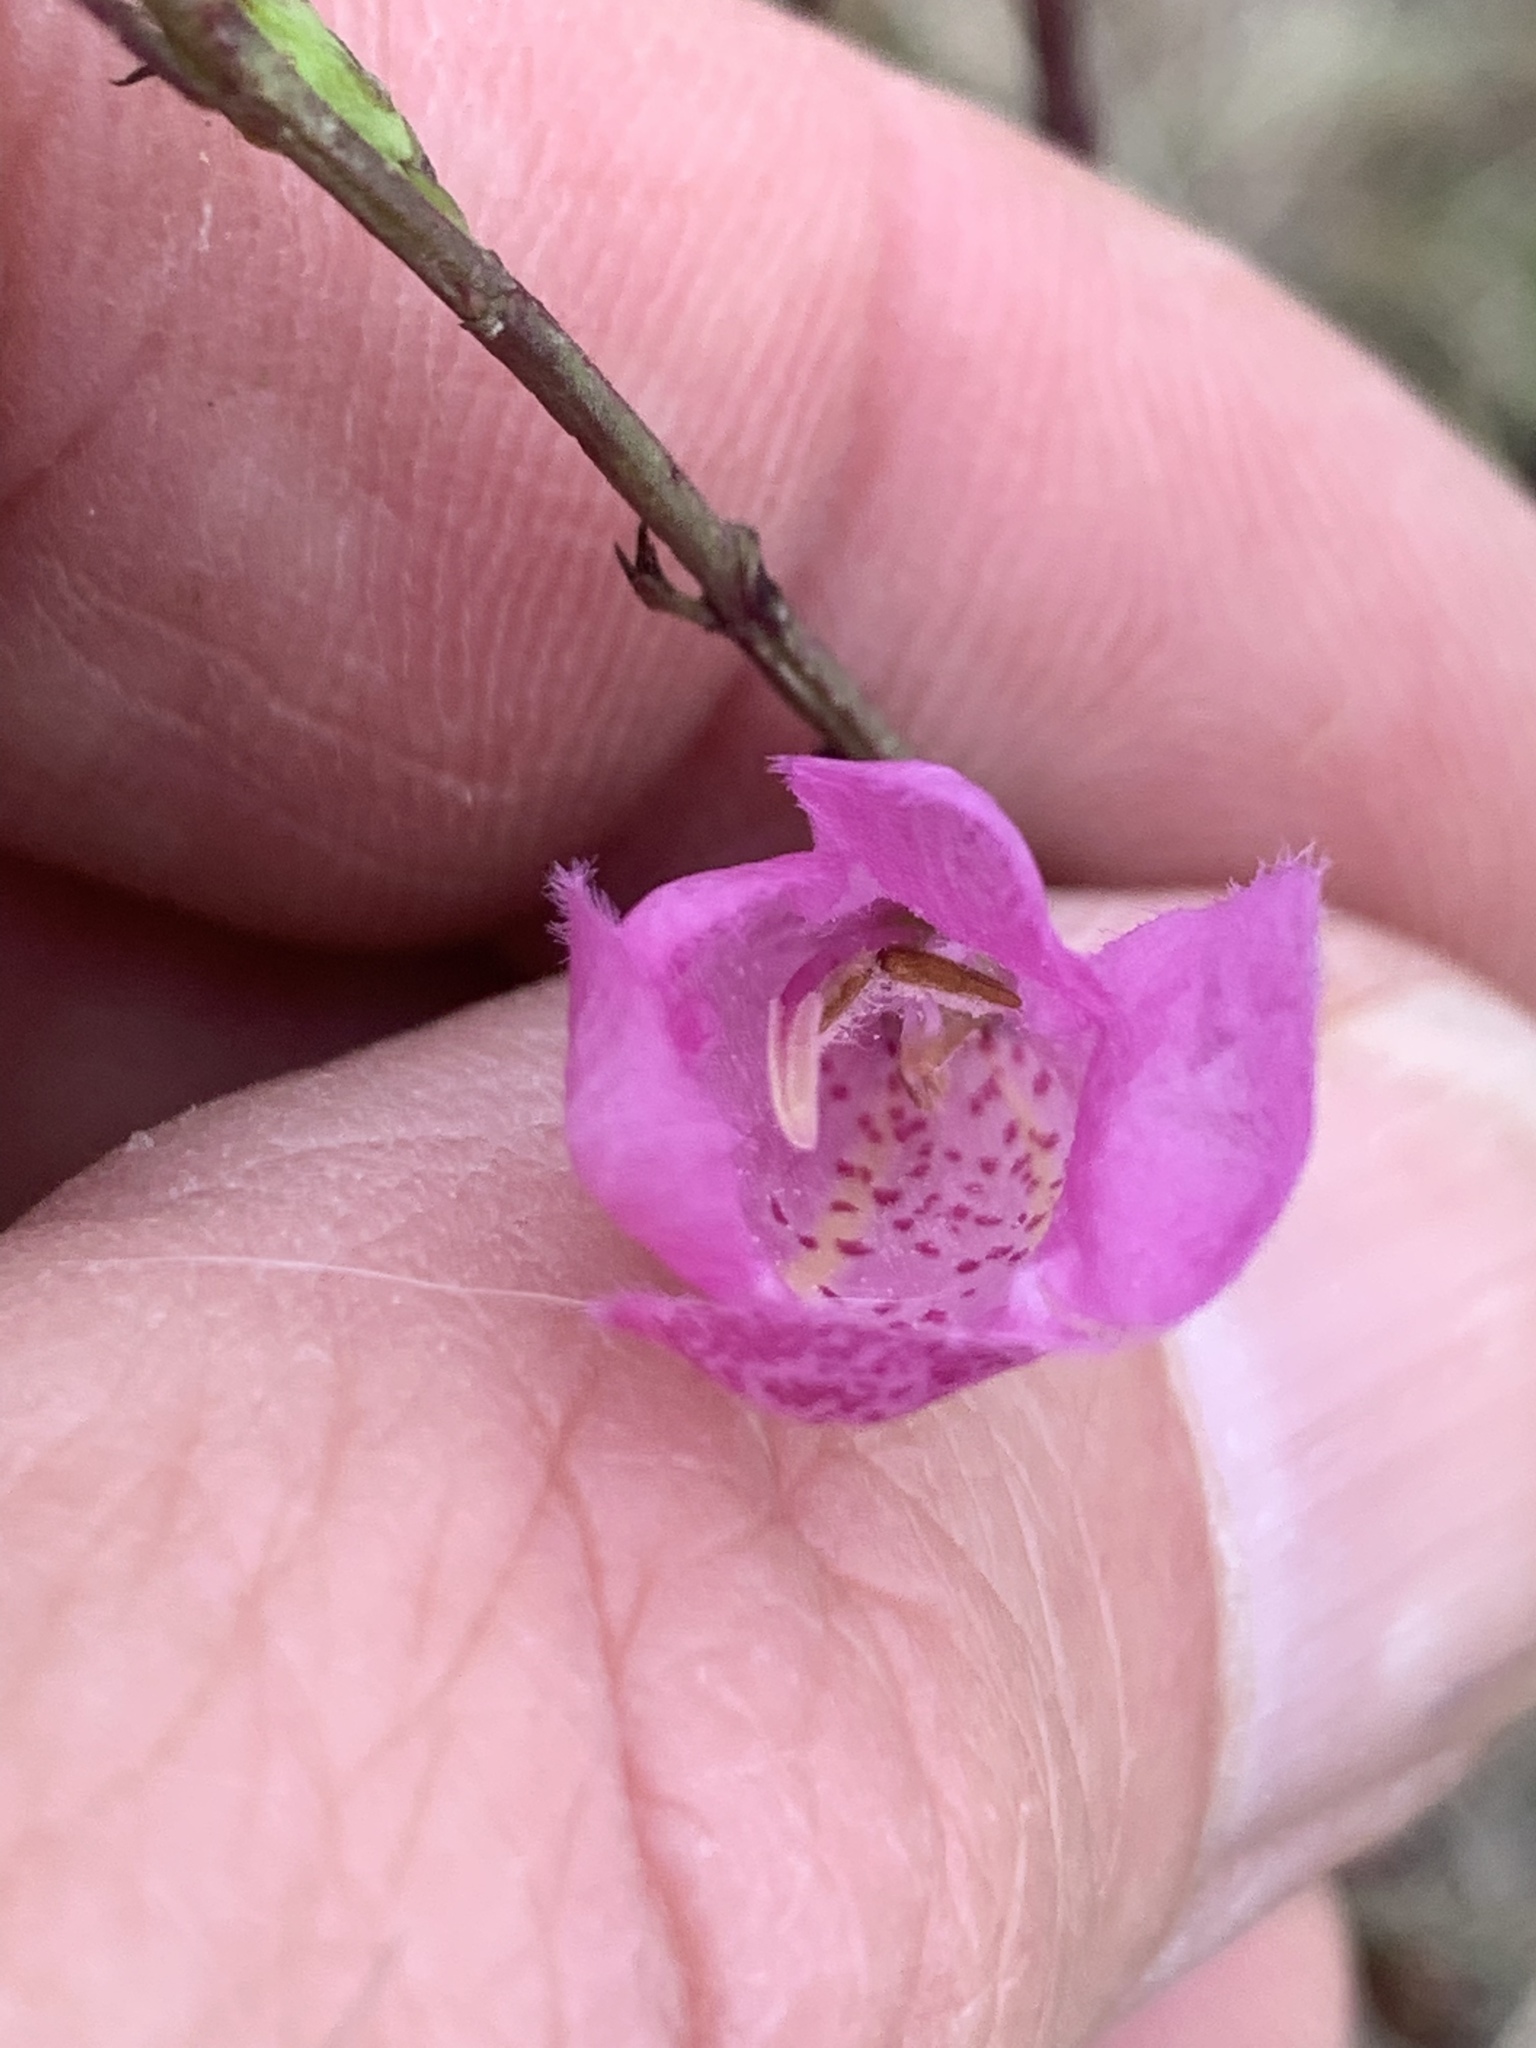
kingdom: Plantae
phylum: Tracheophyta
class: Magnoliopsida
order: Lamiales
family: Orobanchaceae
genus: Agalinis
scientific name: Agalinis heterophylla
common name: Prairie agalinis
